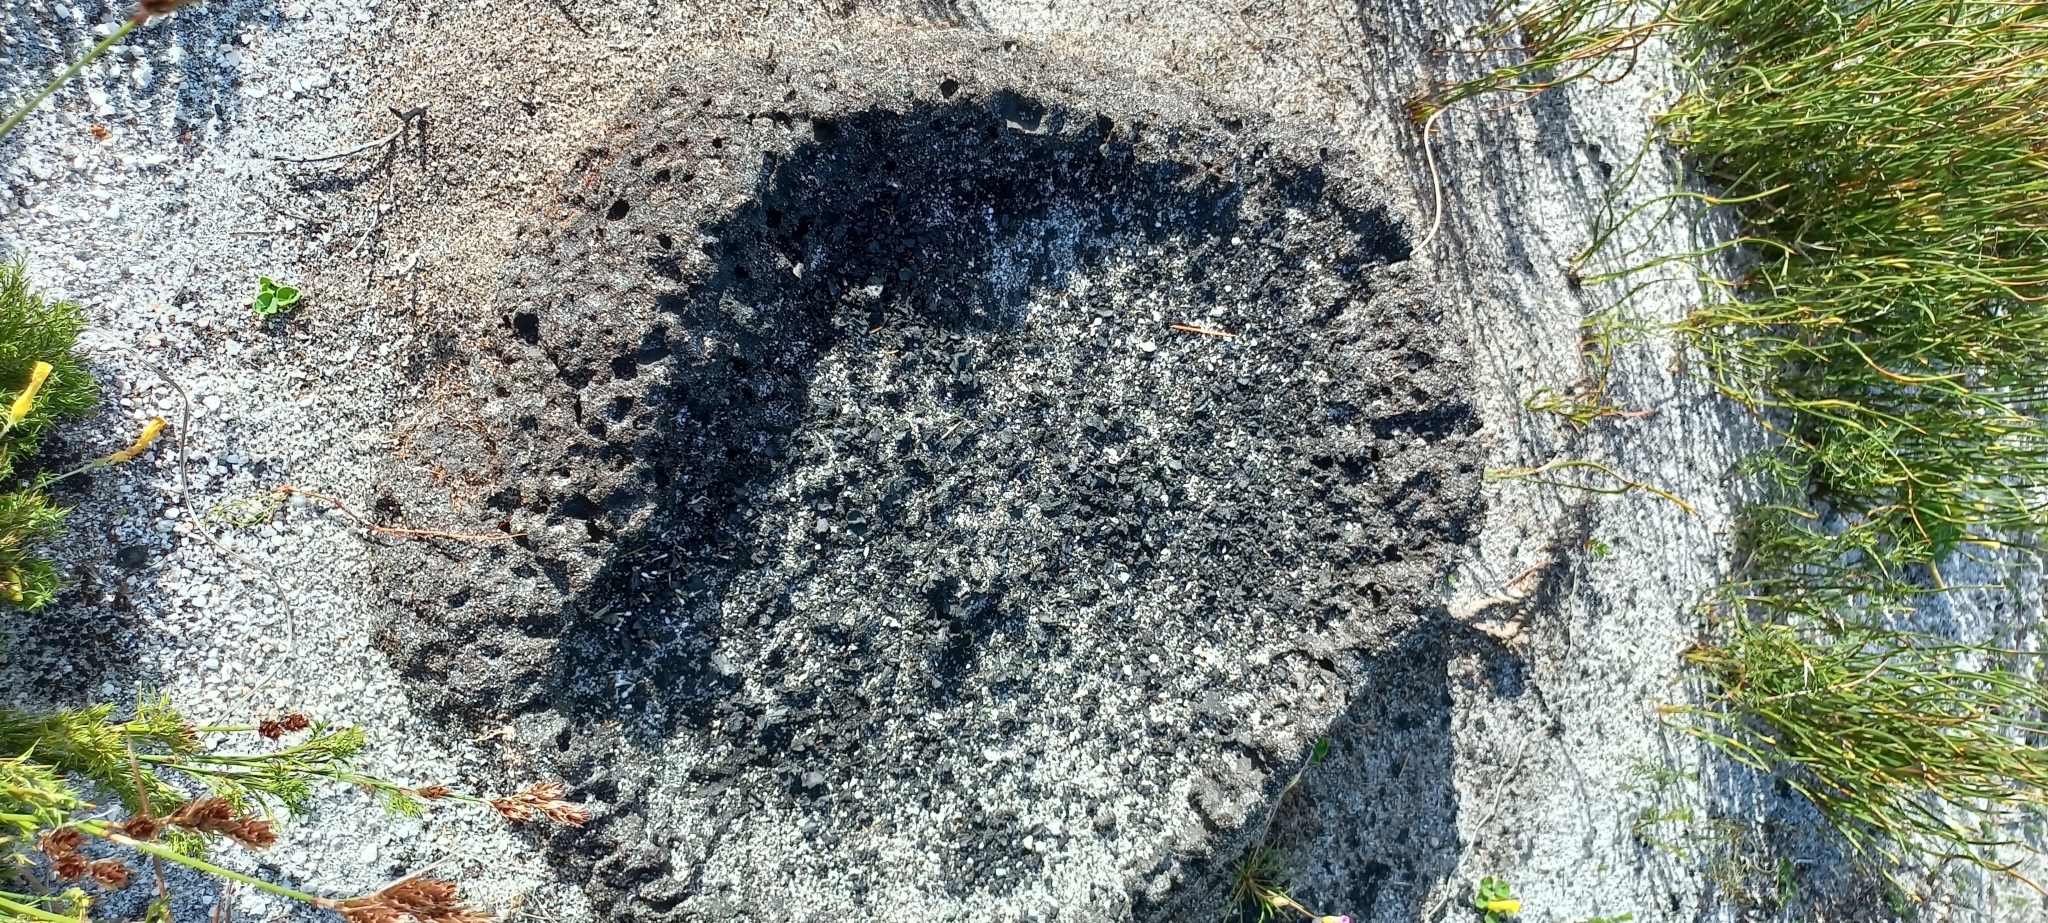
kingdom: Animalia
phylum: Arthropoda
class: Insecta
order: Blattodea
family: Termitidae
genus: Amitermes
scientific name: Amitermes hastatus
